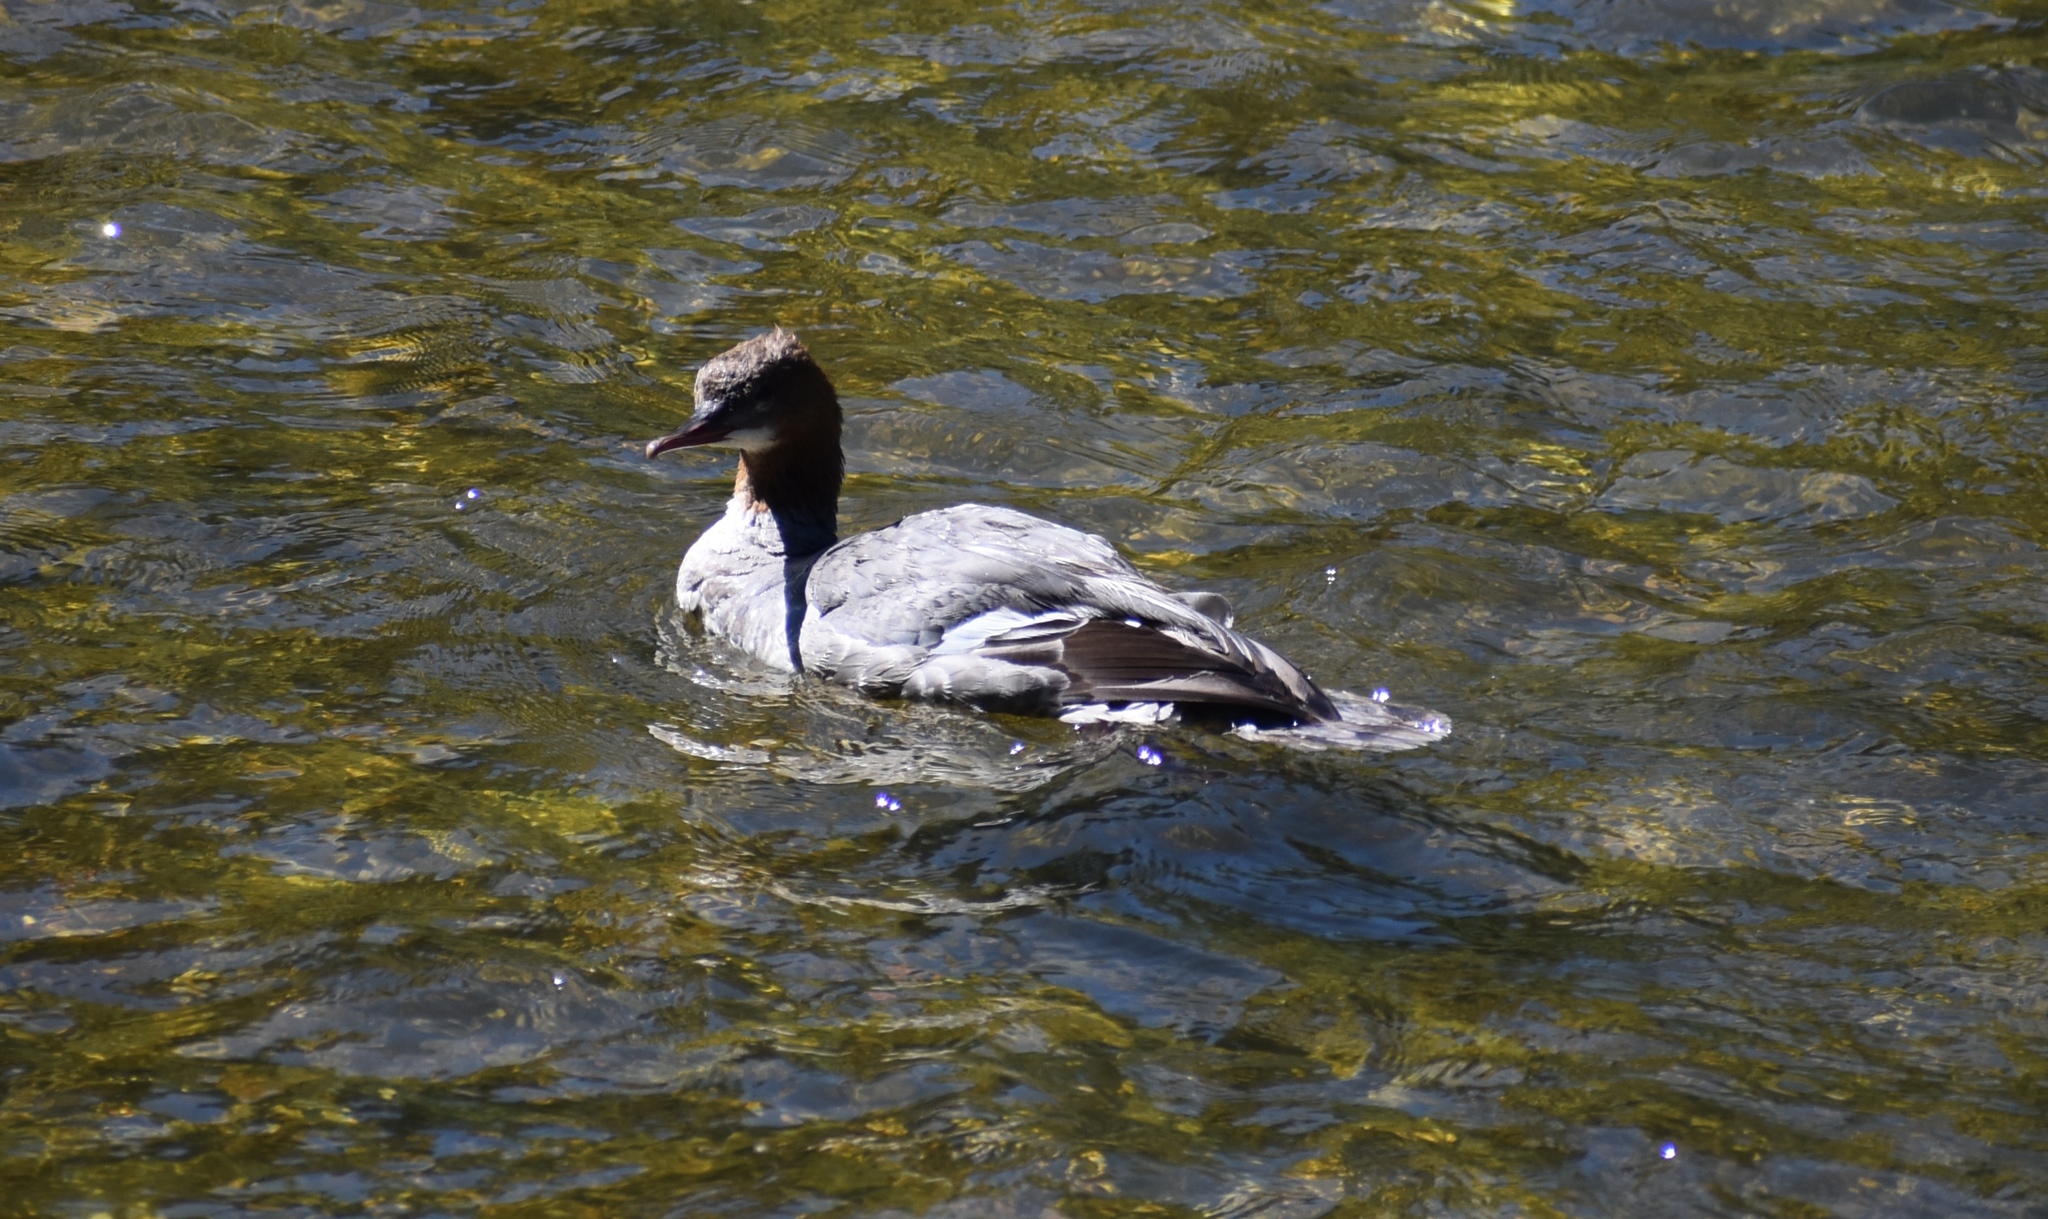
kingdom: Animalia
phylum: Chordata
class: Aves
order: Anseriformes
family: Anatidae
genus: Mergus
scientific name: Mergus merganser
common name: Common merganser
